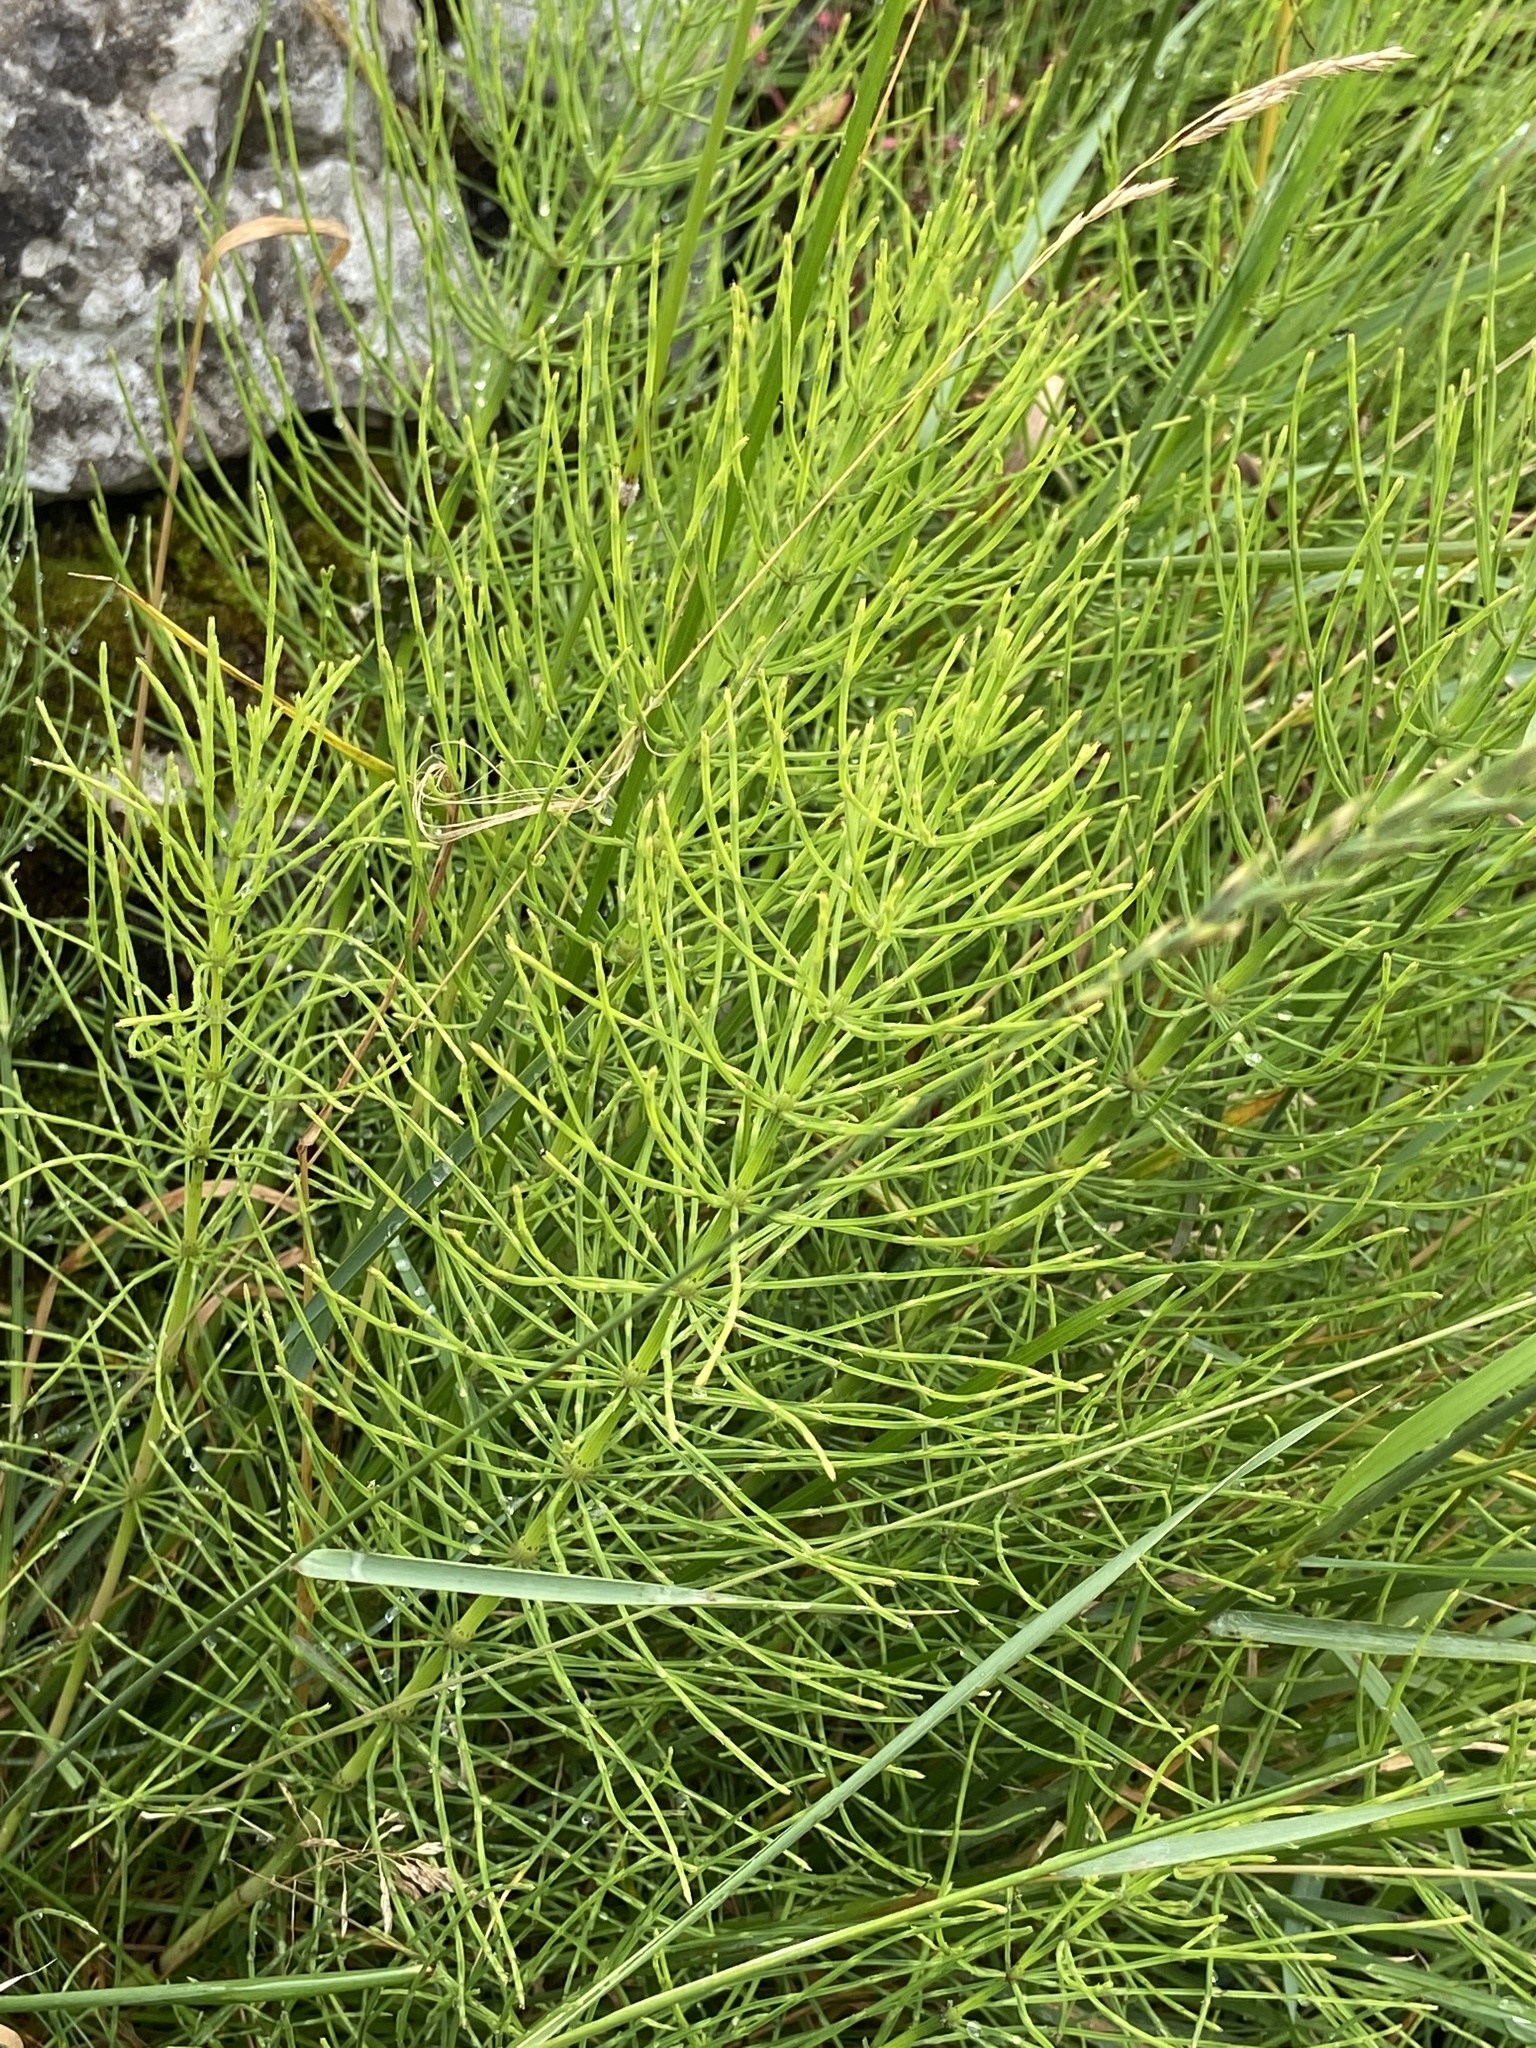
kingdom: Plantae
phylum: Tracheophyta
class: Polypodiopsida
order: Equisetales
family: Equisetaceae
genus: Equisetum
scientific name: Equisetum arvense
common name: Field horsetail
